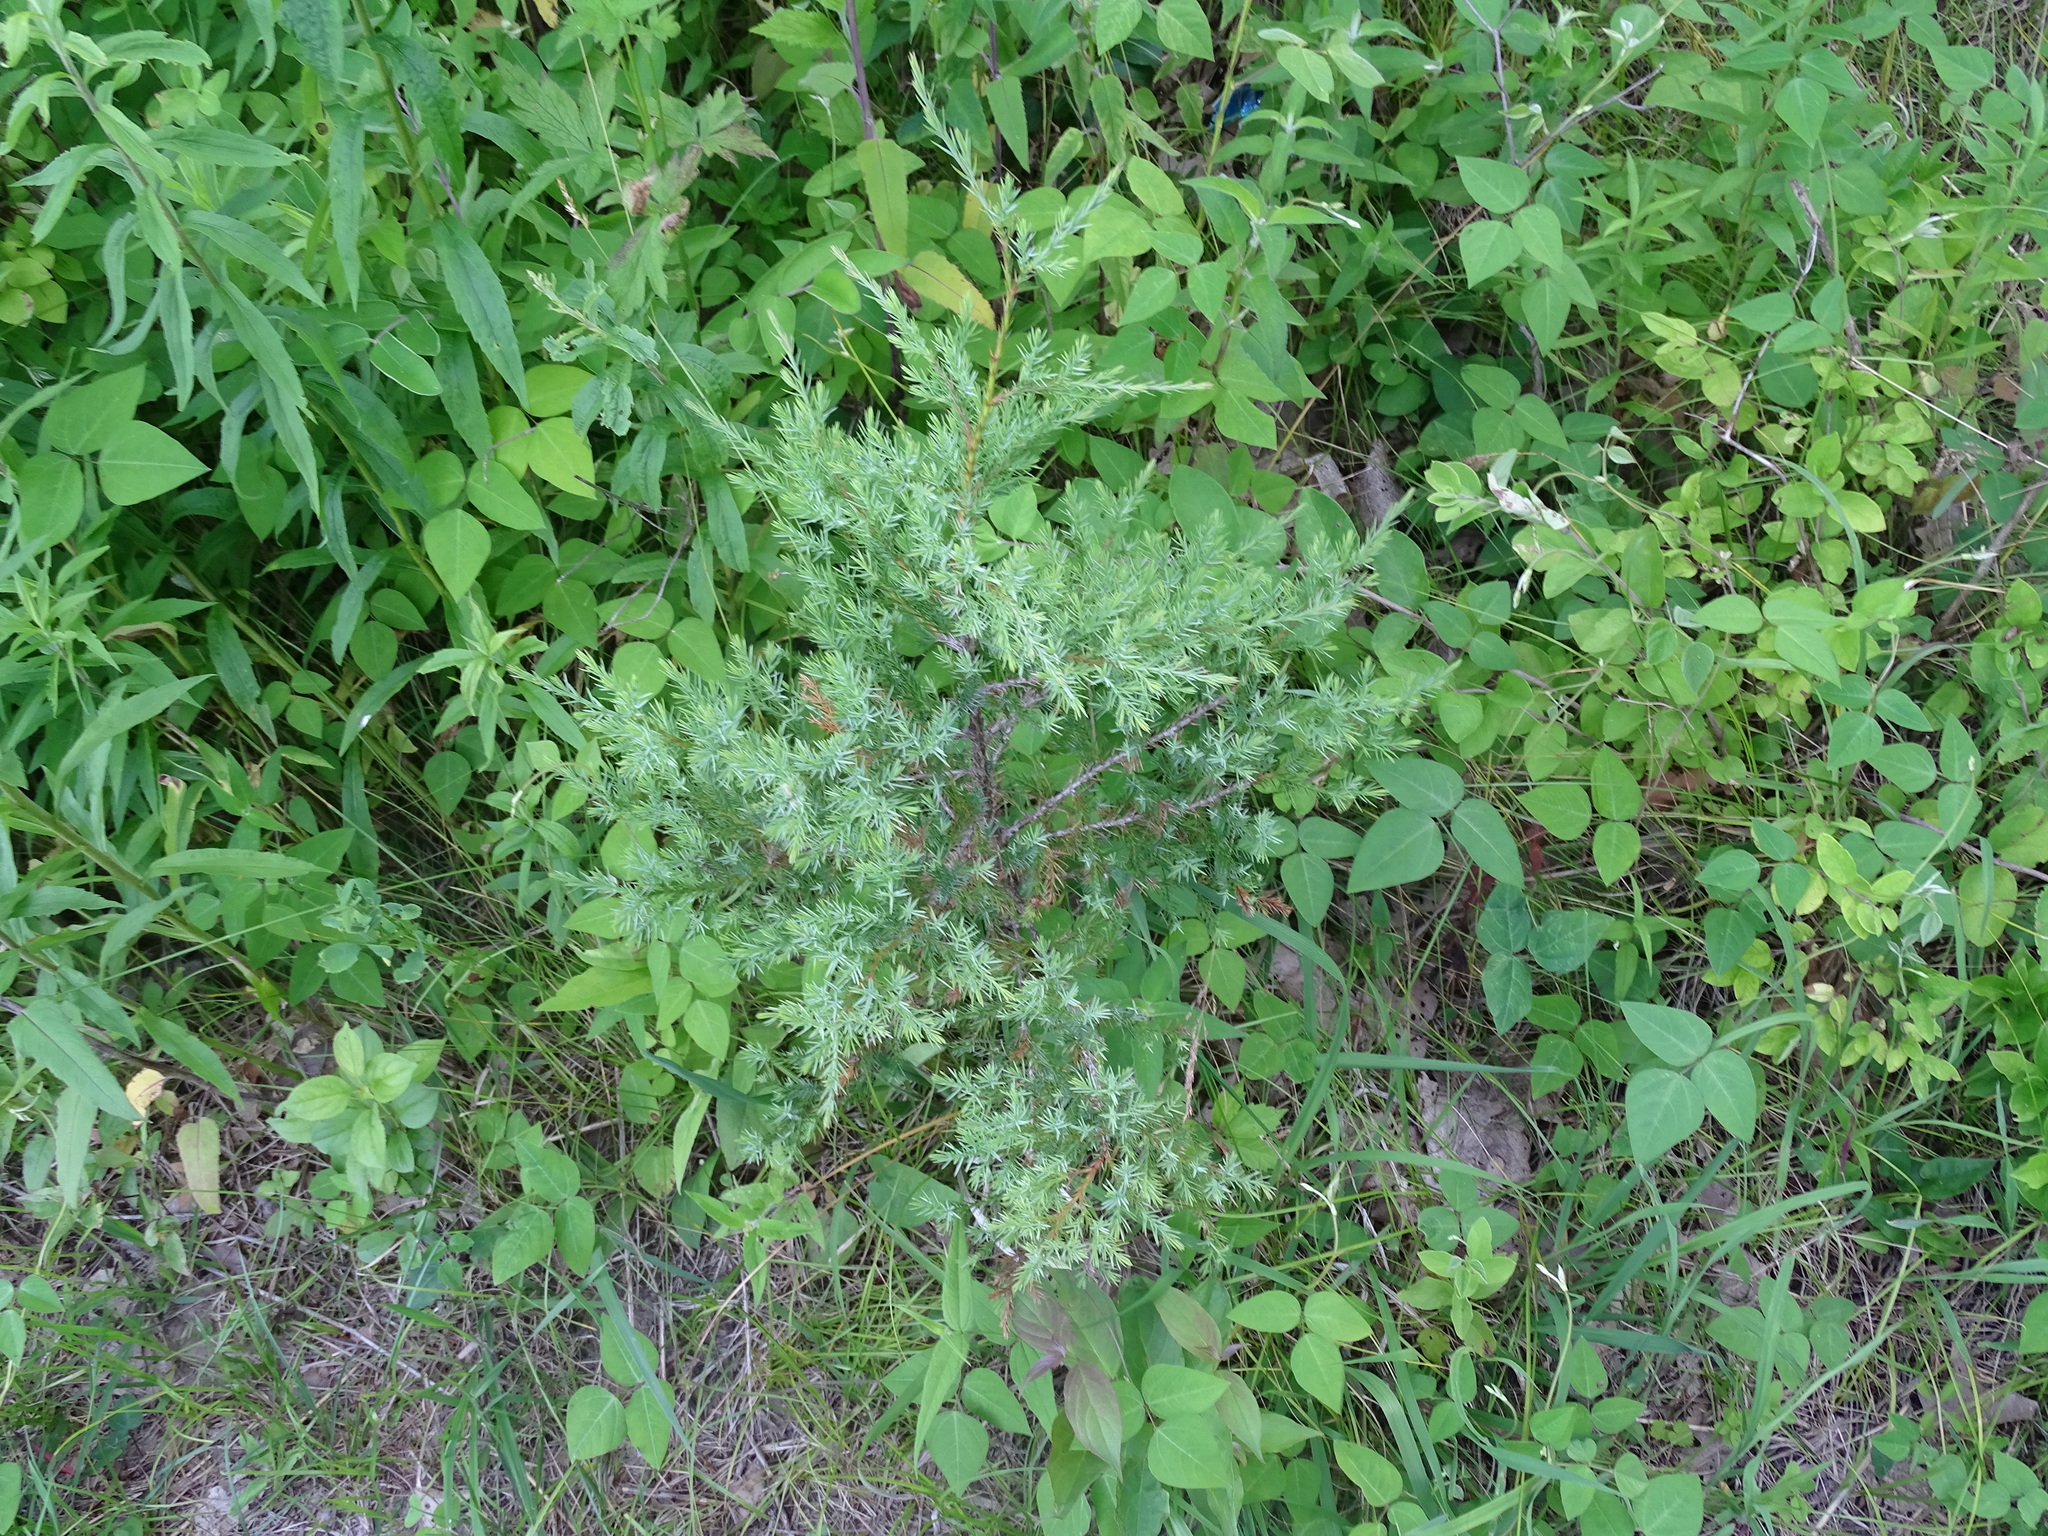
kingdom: Plantae
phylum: Tracheophyta
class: Pinopsida
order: Pinales
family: Cupressaceae
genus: Juniperus
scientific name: Juniperus virginiana
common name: Red juniper
